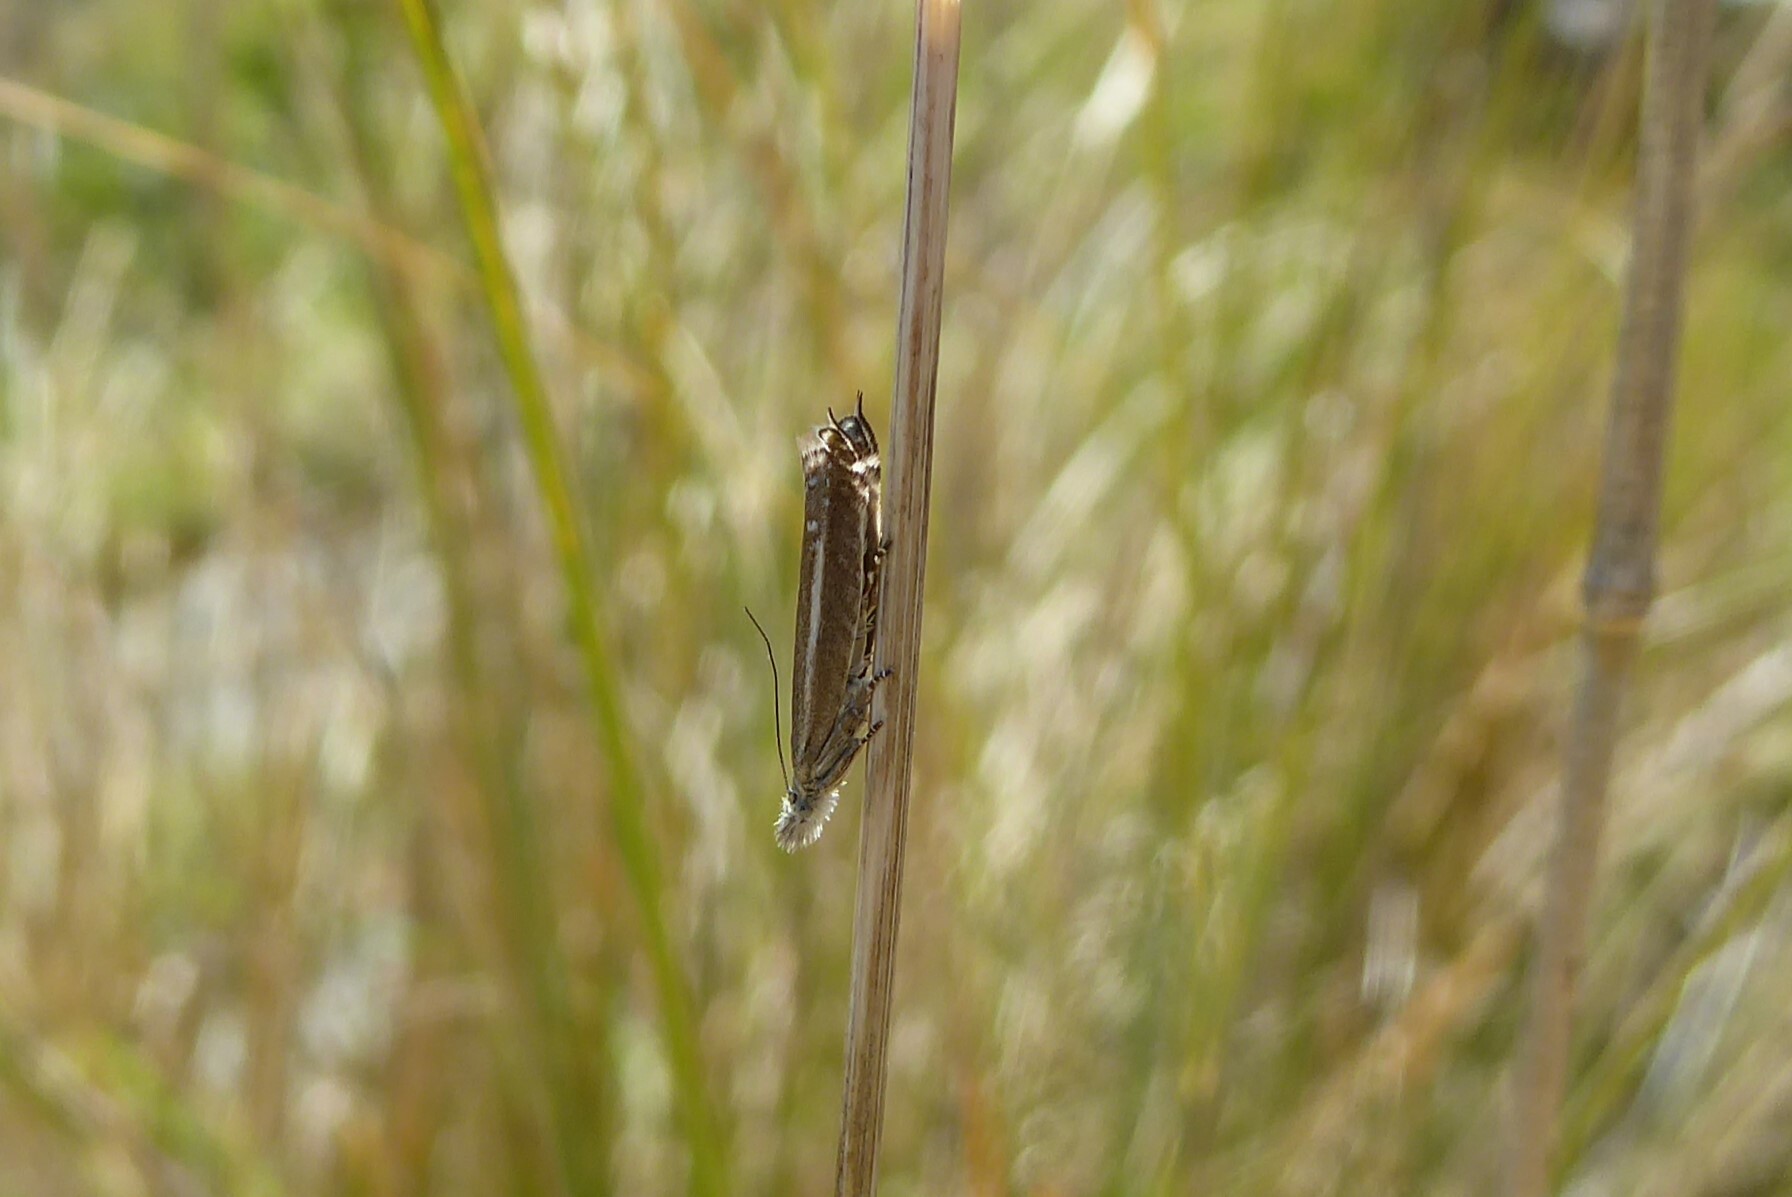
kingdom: Animalia
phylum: Arthropoda
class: Insecta
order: Lepidoptera
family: Glyphipterigidae
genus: Glyphipterix
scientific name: Glyphipterix barbata
